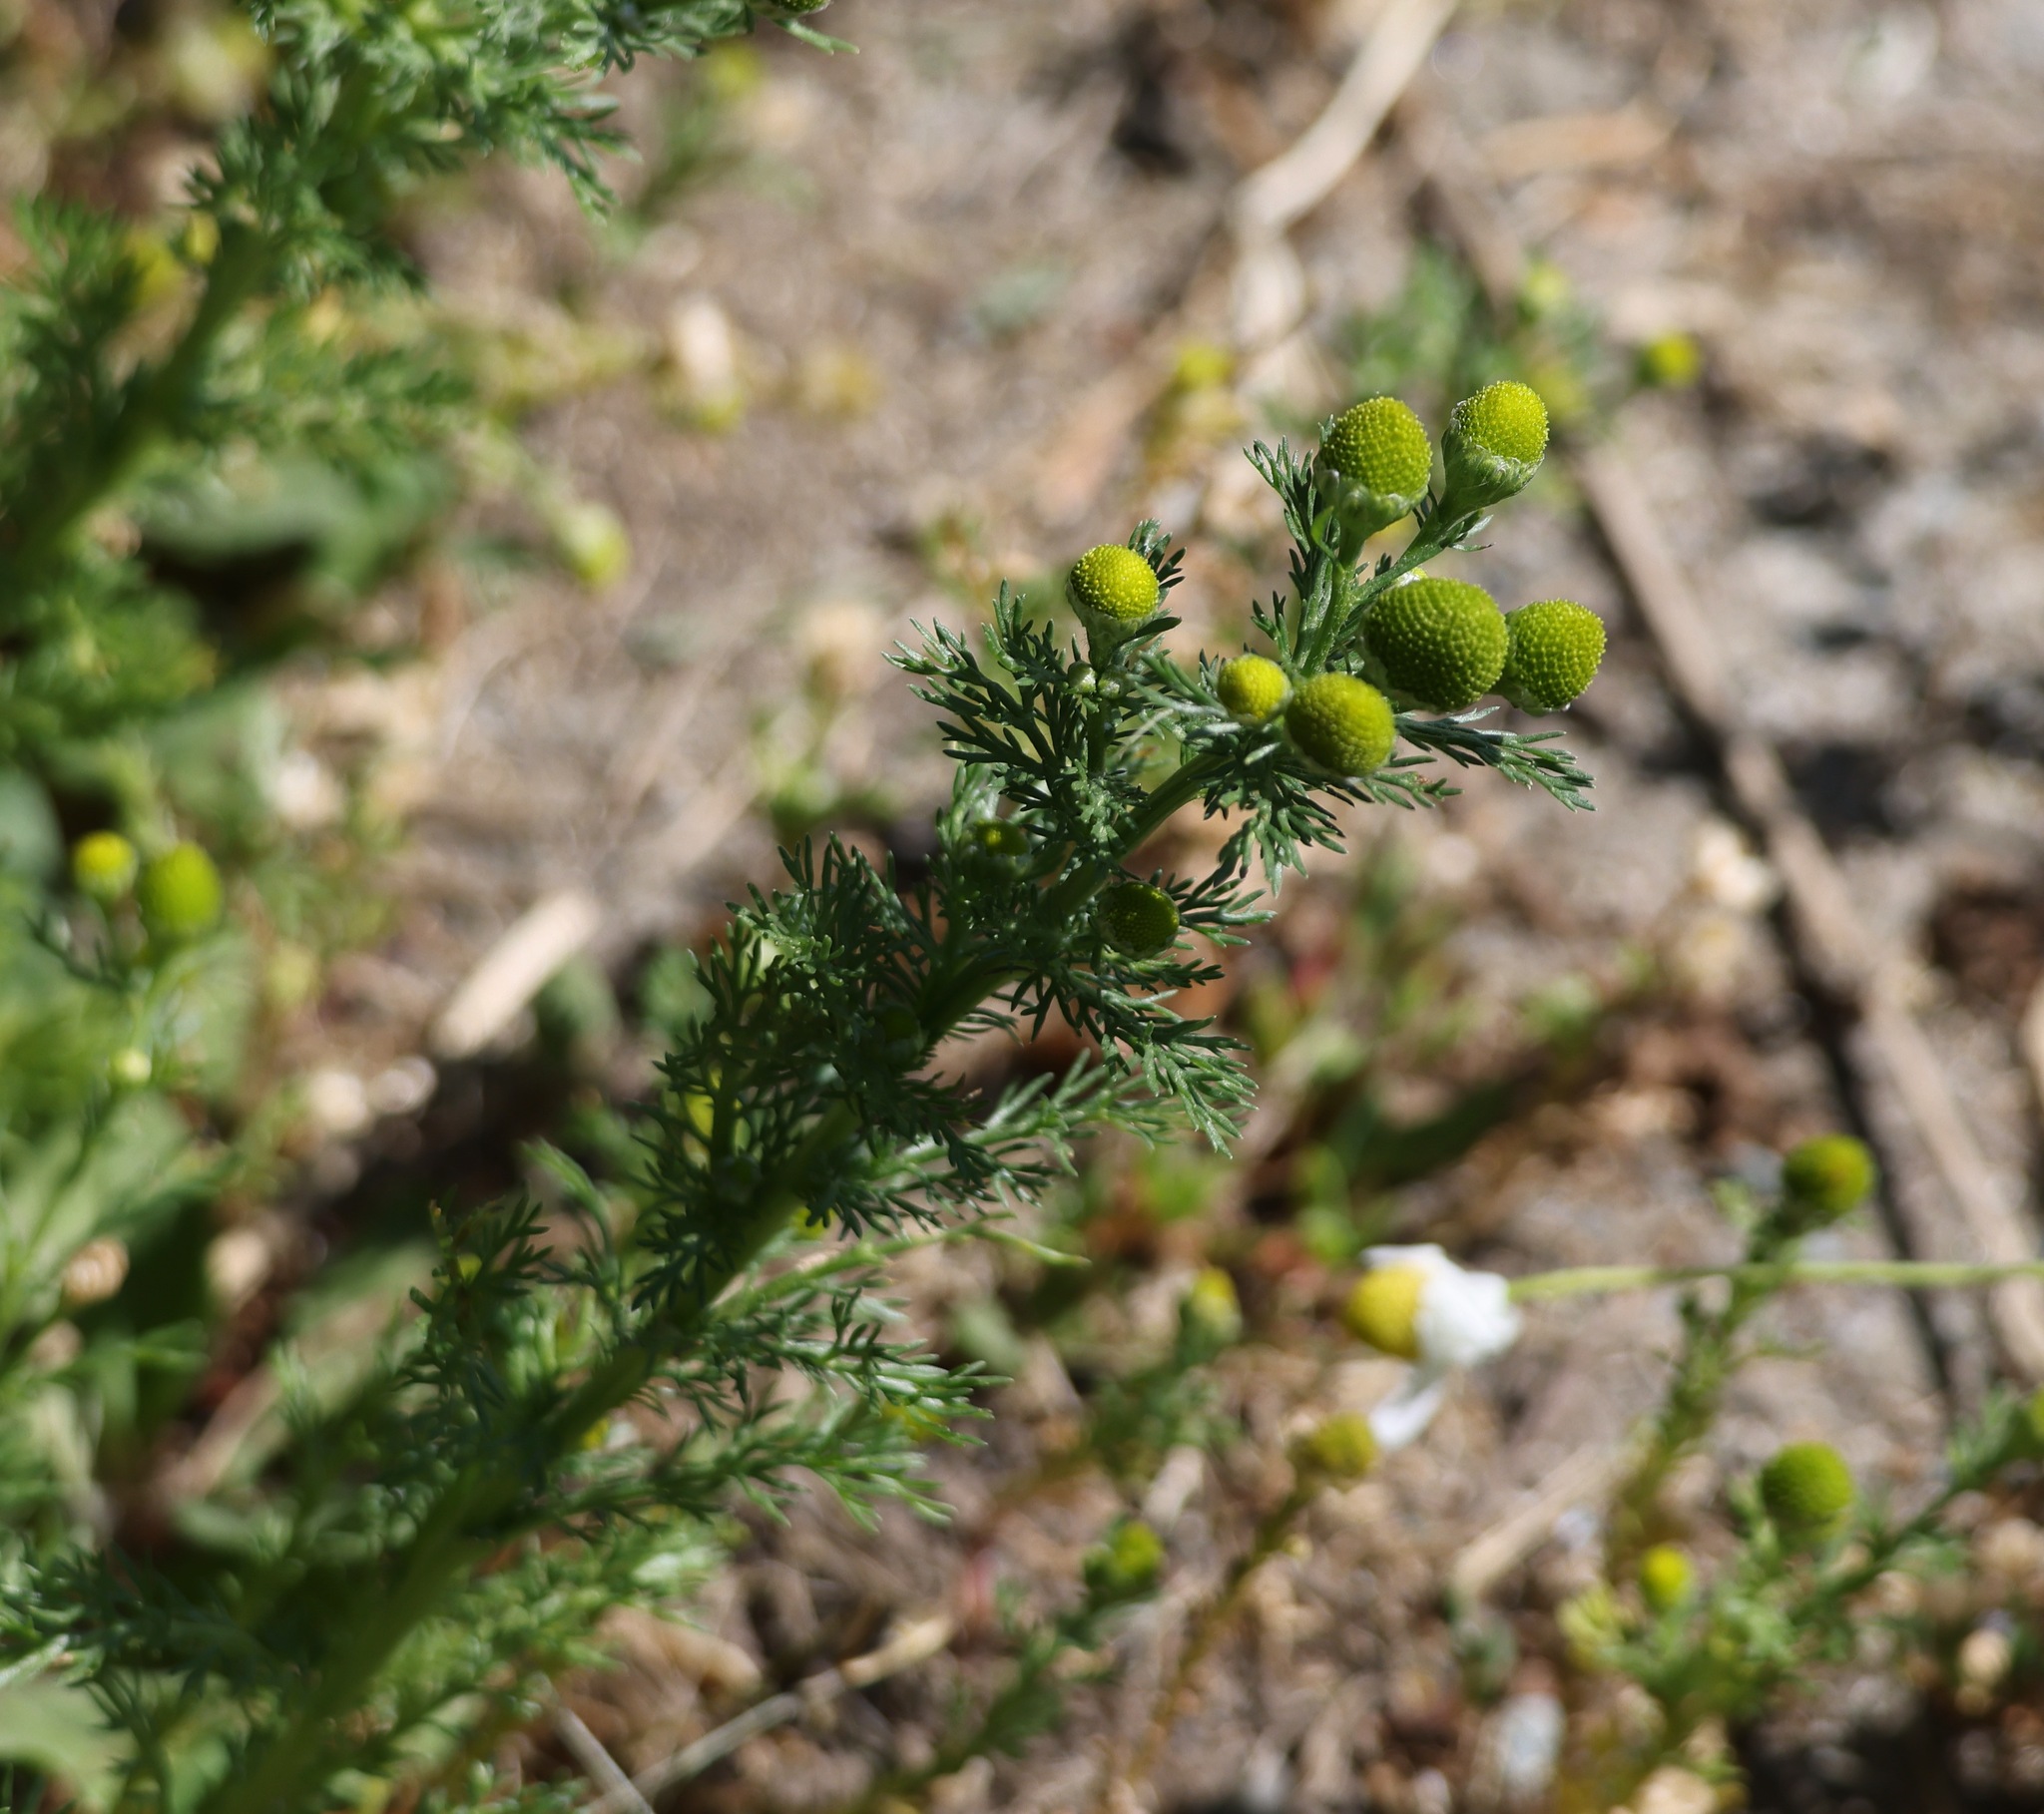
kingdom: Plantae
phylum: Tracheophyta
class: Magnoliopsida
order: Asterales
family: Asteraceae
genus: Matricaria
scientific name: Matricaria discoidea
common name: Disc mayweed
